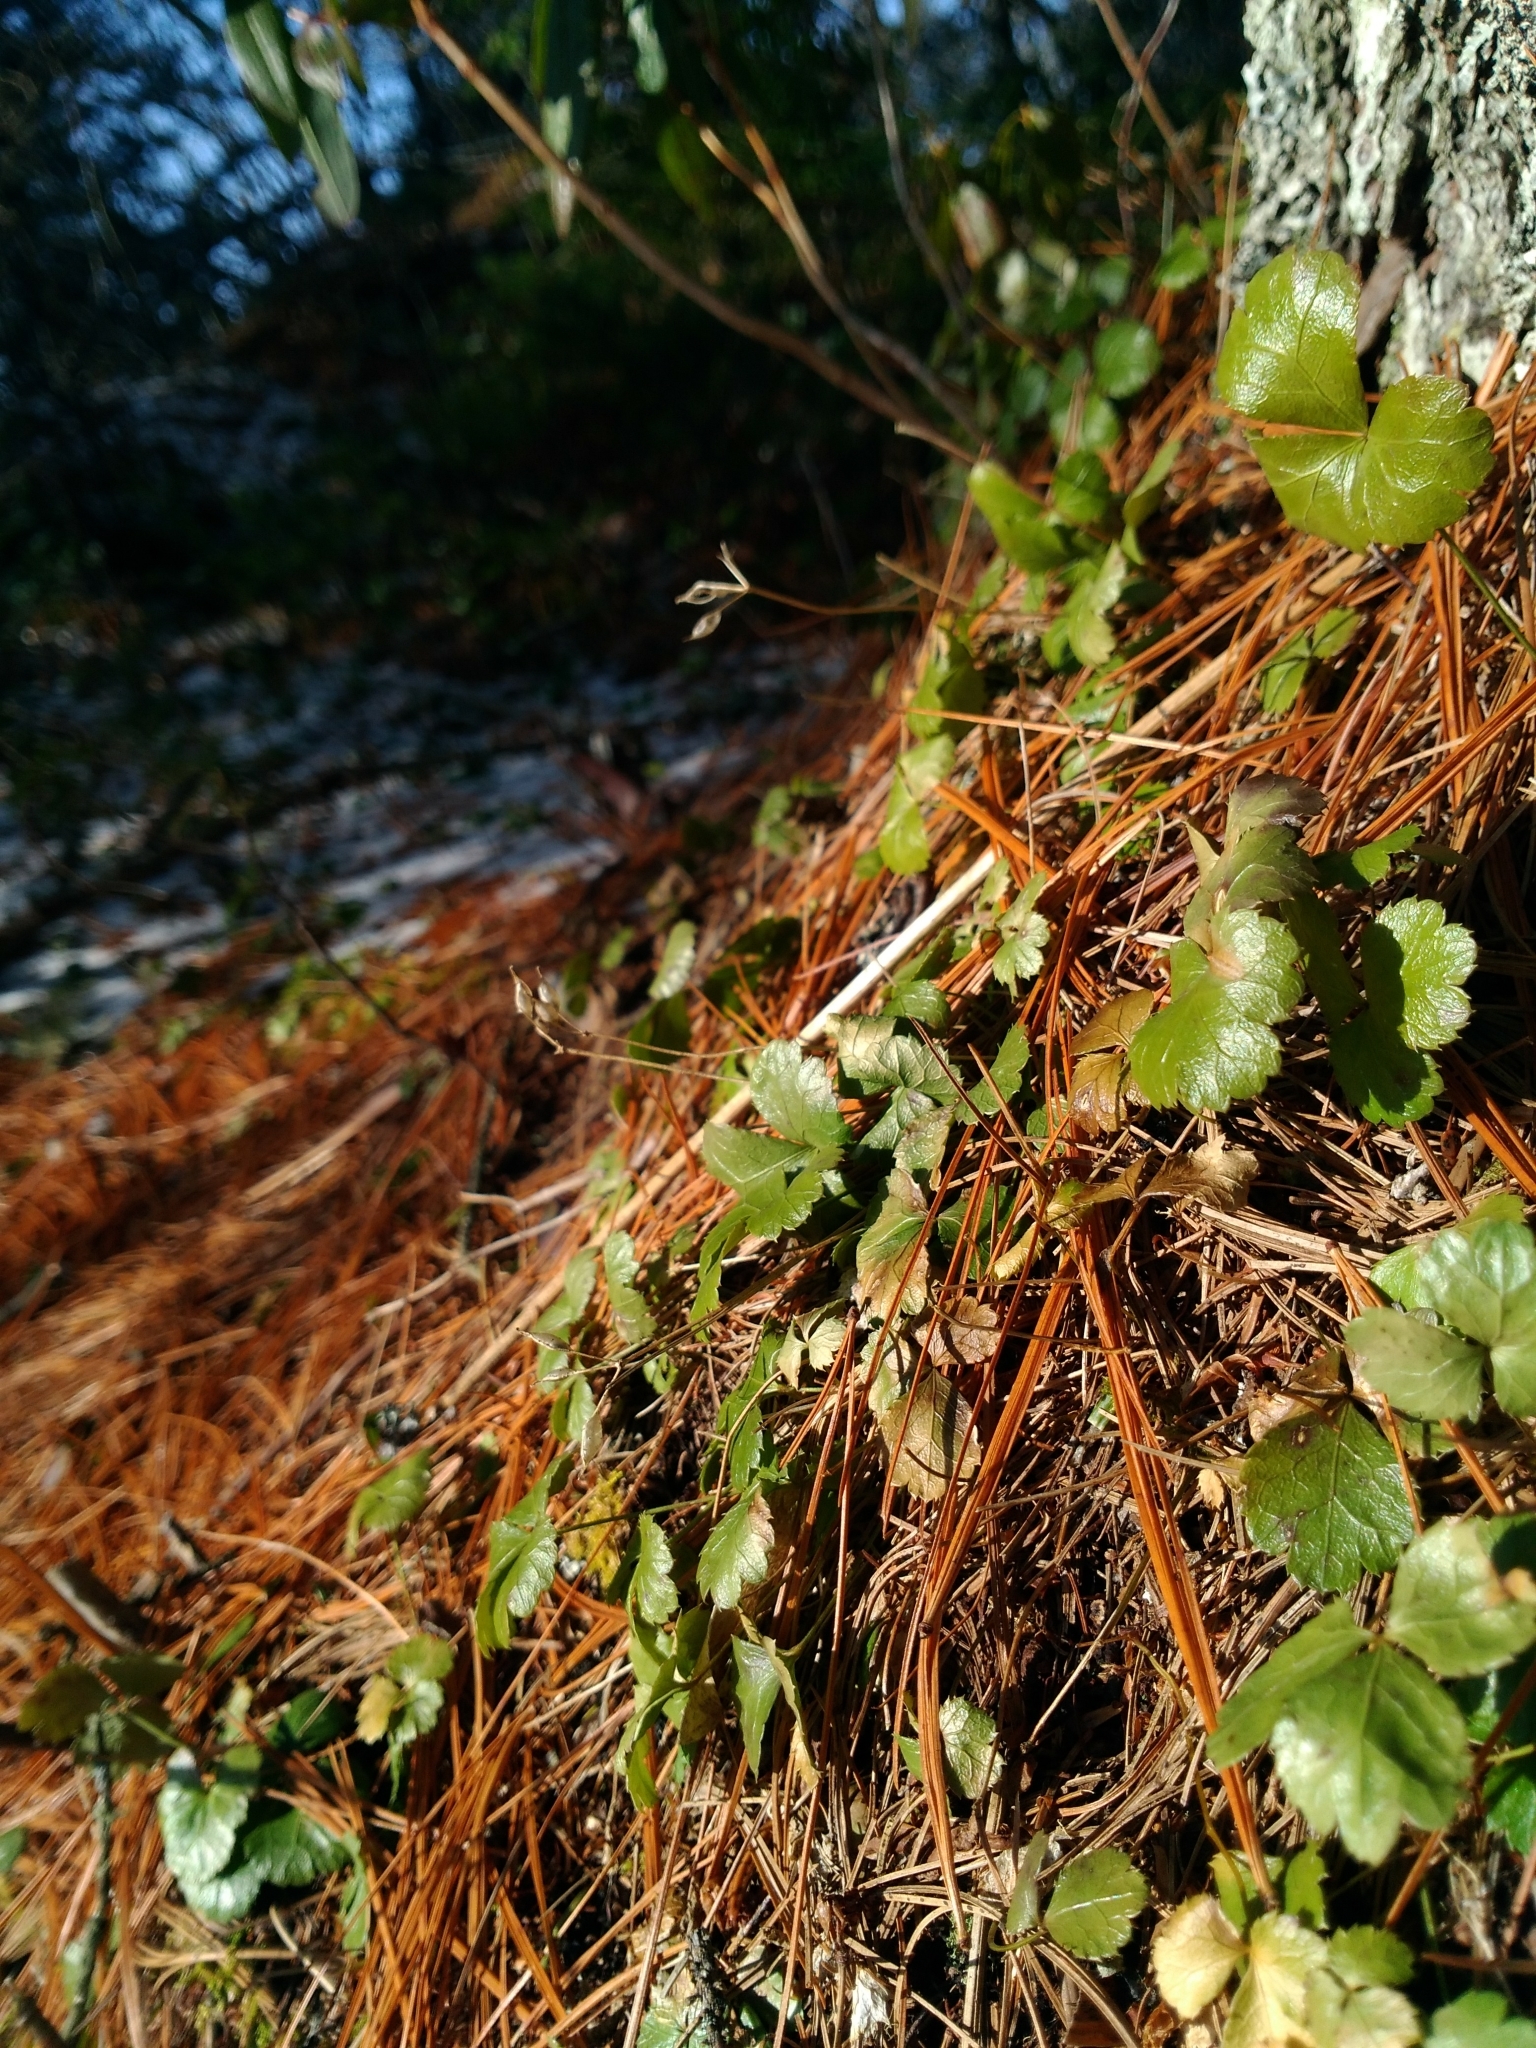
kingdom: Plantae
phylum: Tracheophyta
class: Magnoliopsida
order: Ranunculales
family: Ranunculaceae
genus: Coptis
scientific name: Coptis trifolia
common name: Canker-root
